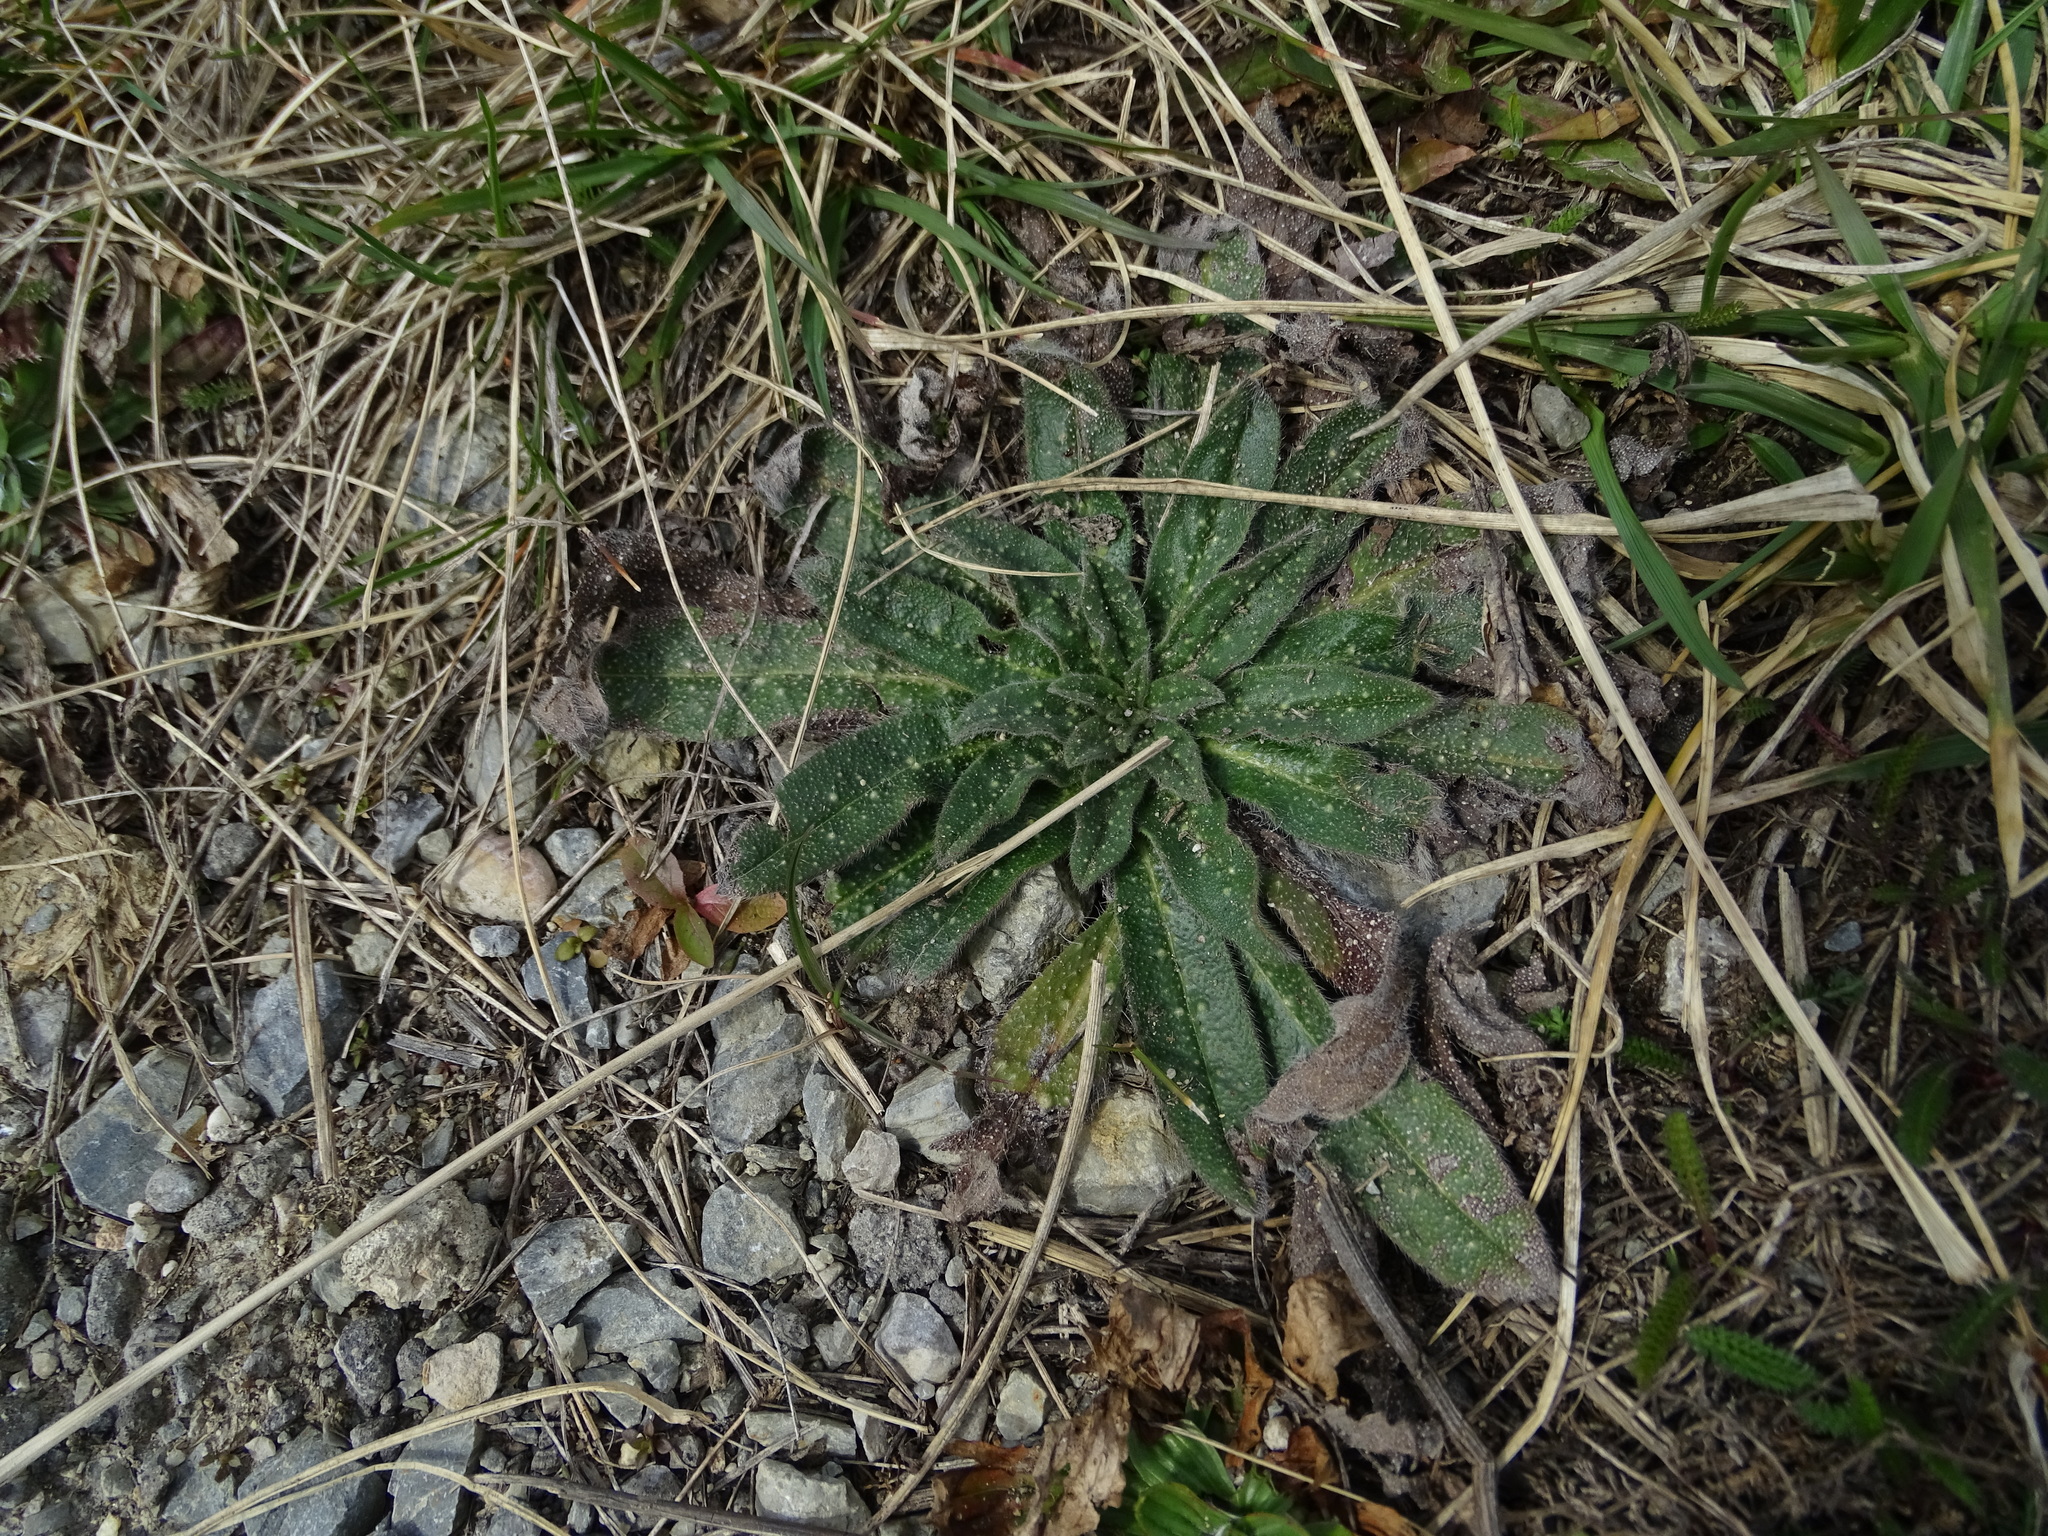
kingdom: Plantae
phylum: Tracheophyta
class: Magnoliopsida
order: Boraginales
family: Boraginaceae
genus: Echium
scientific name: Echium vulgare
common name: Common viper's bugloss
